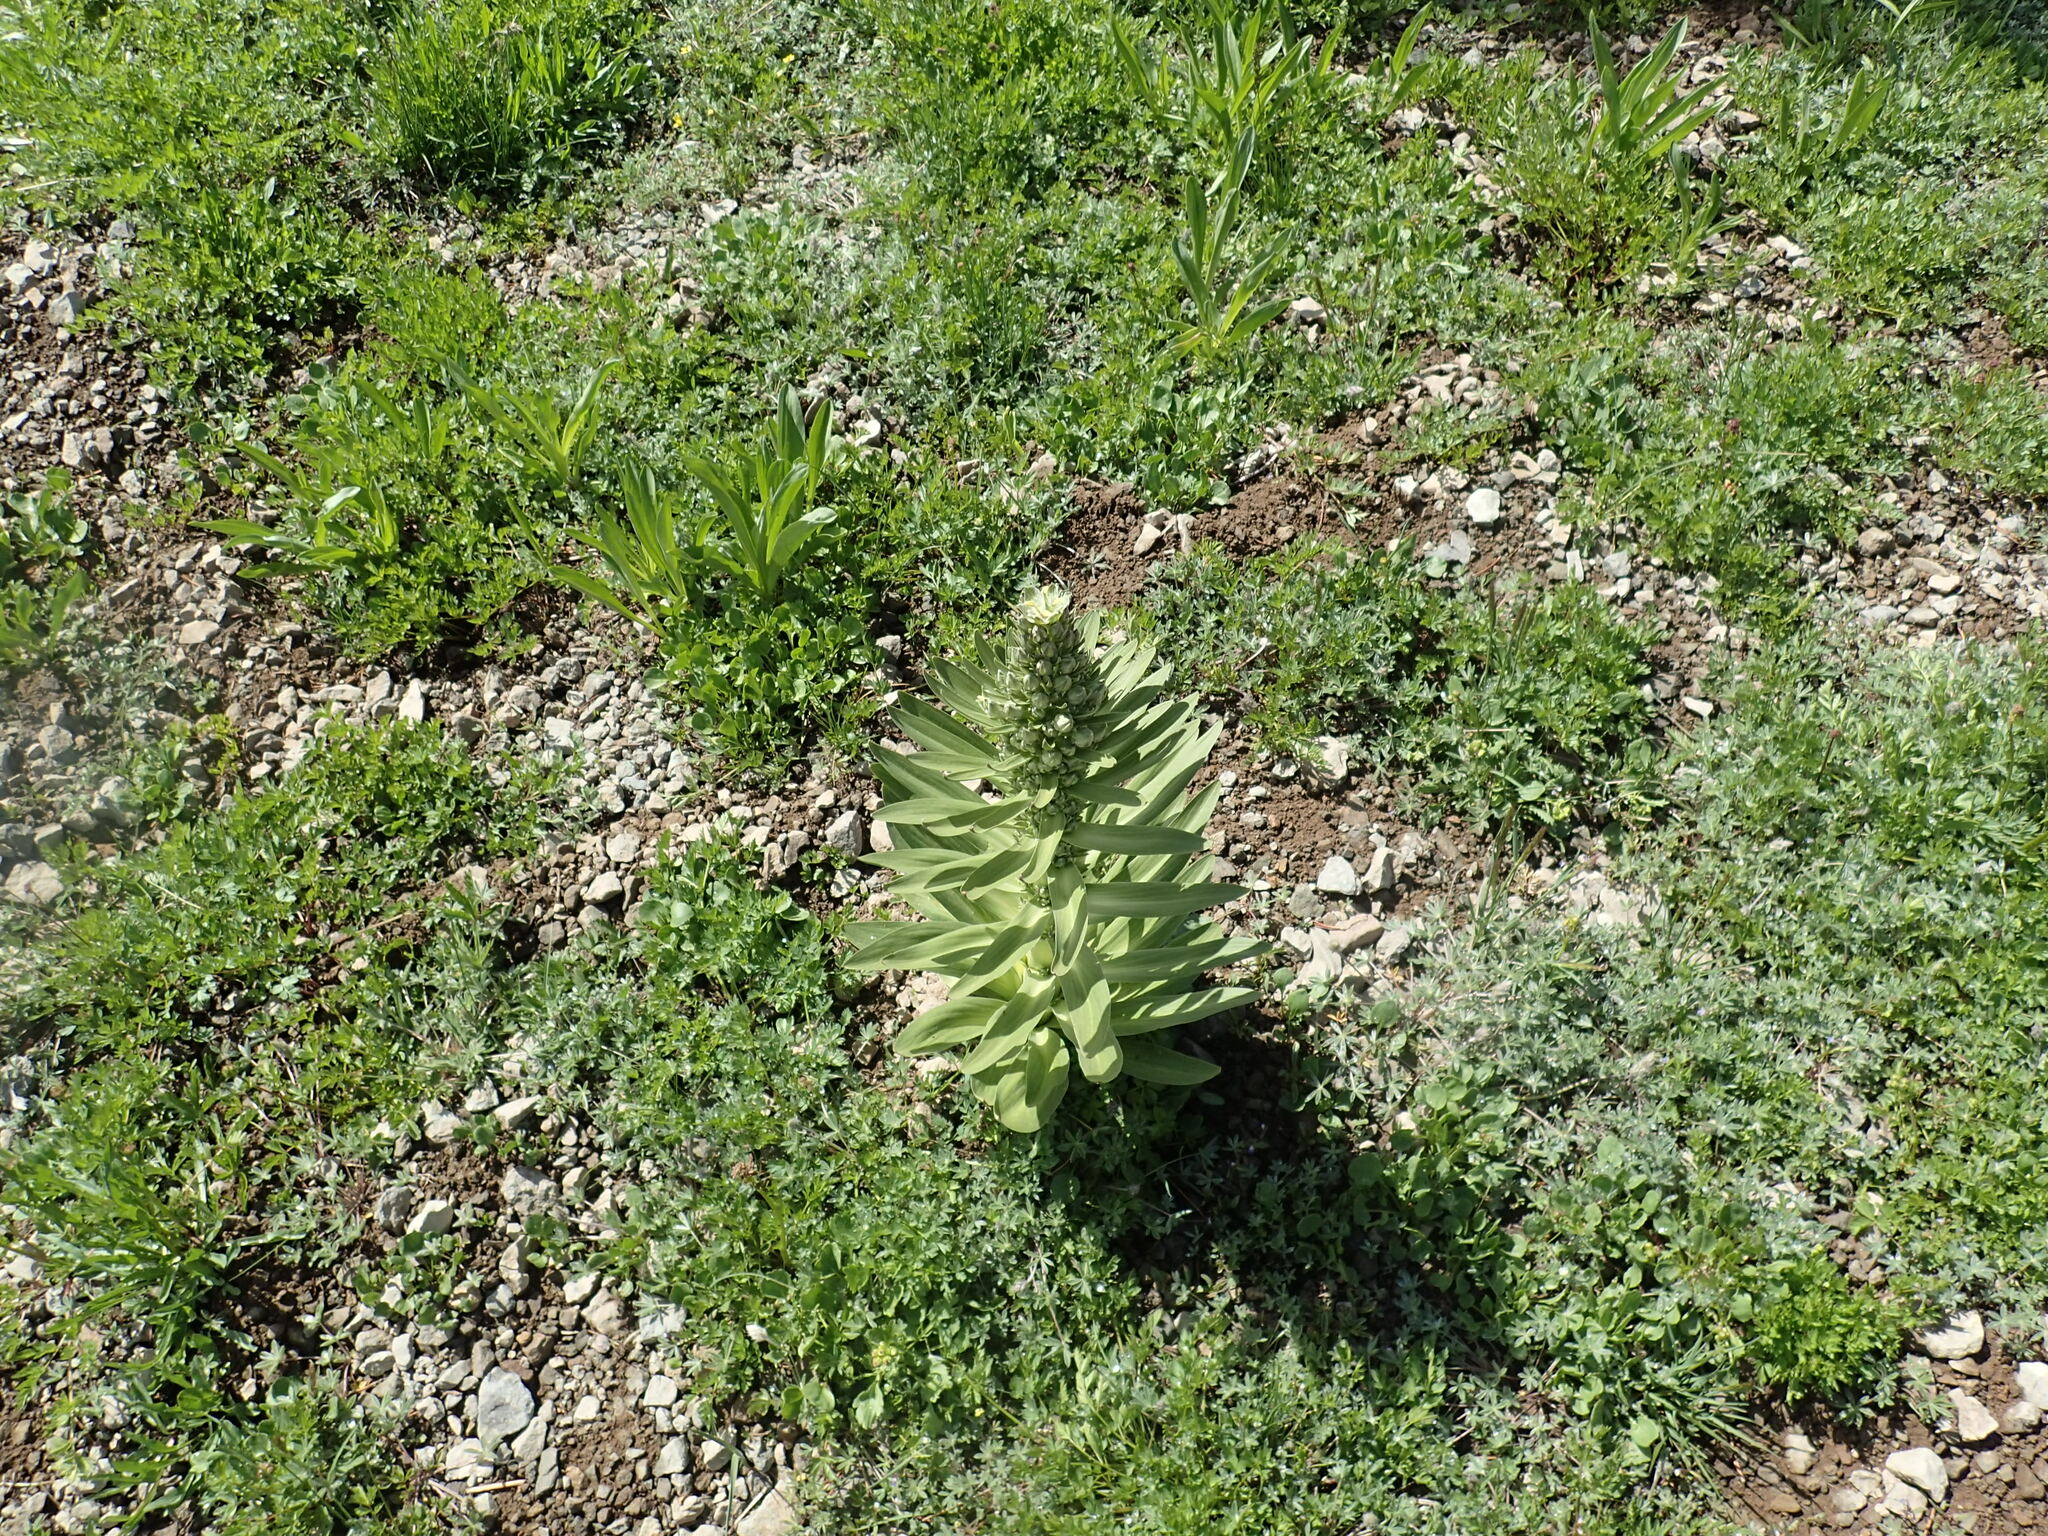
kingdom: Plantae
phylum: Tracheophyta
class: Magnoliopsida
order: Gentianales
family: Gentianaceae
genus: Frasera
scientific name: Frasera speciosa
